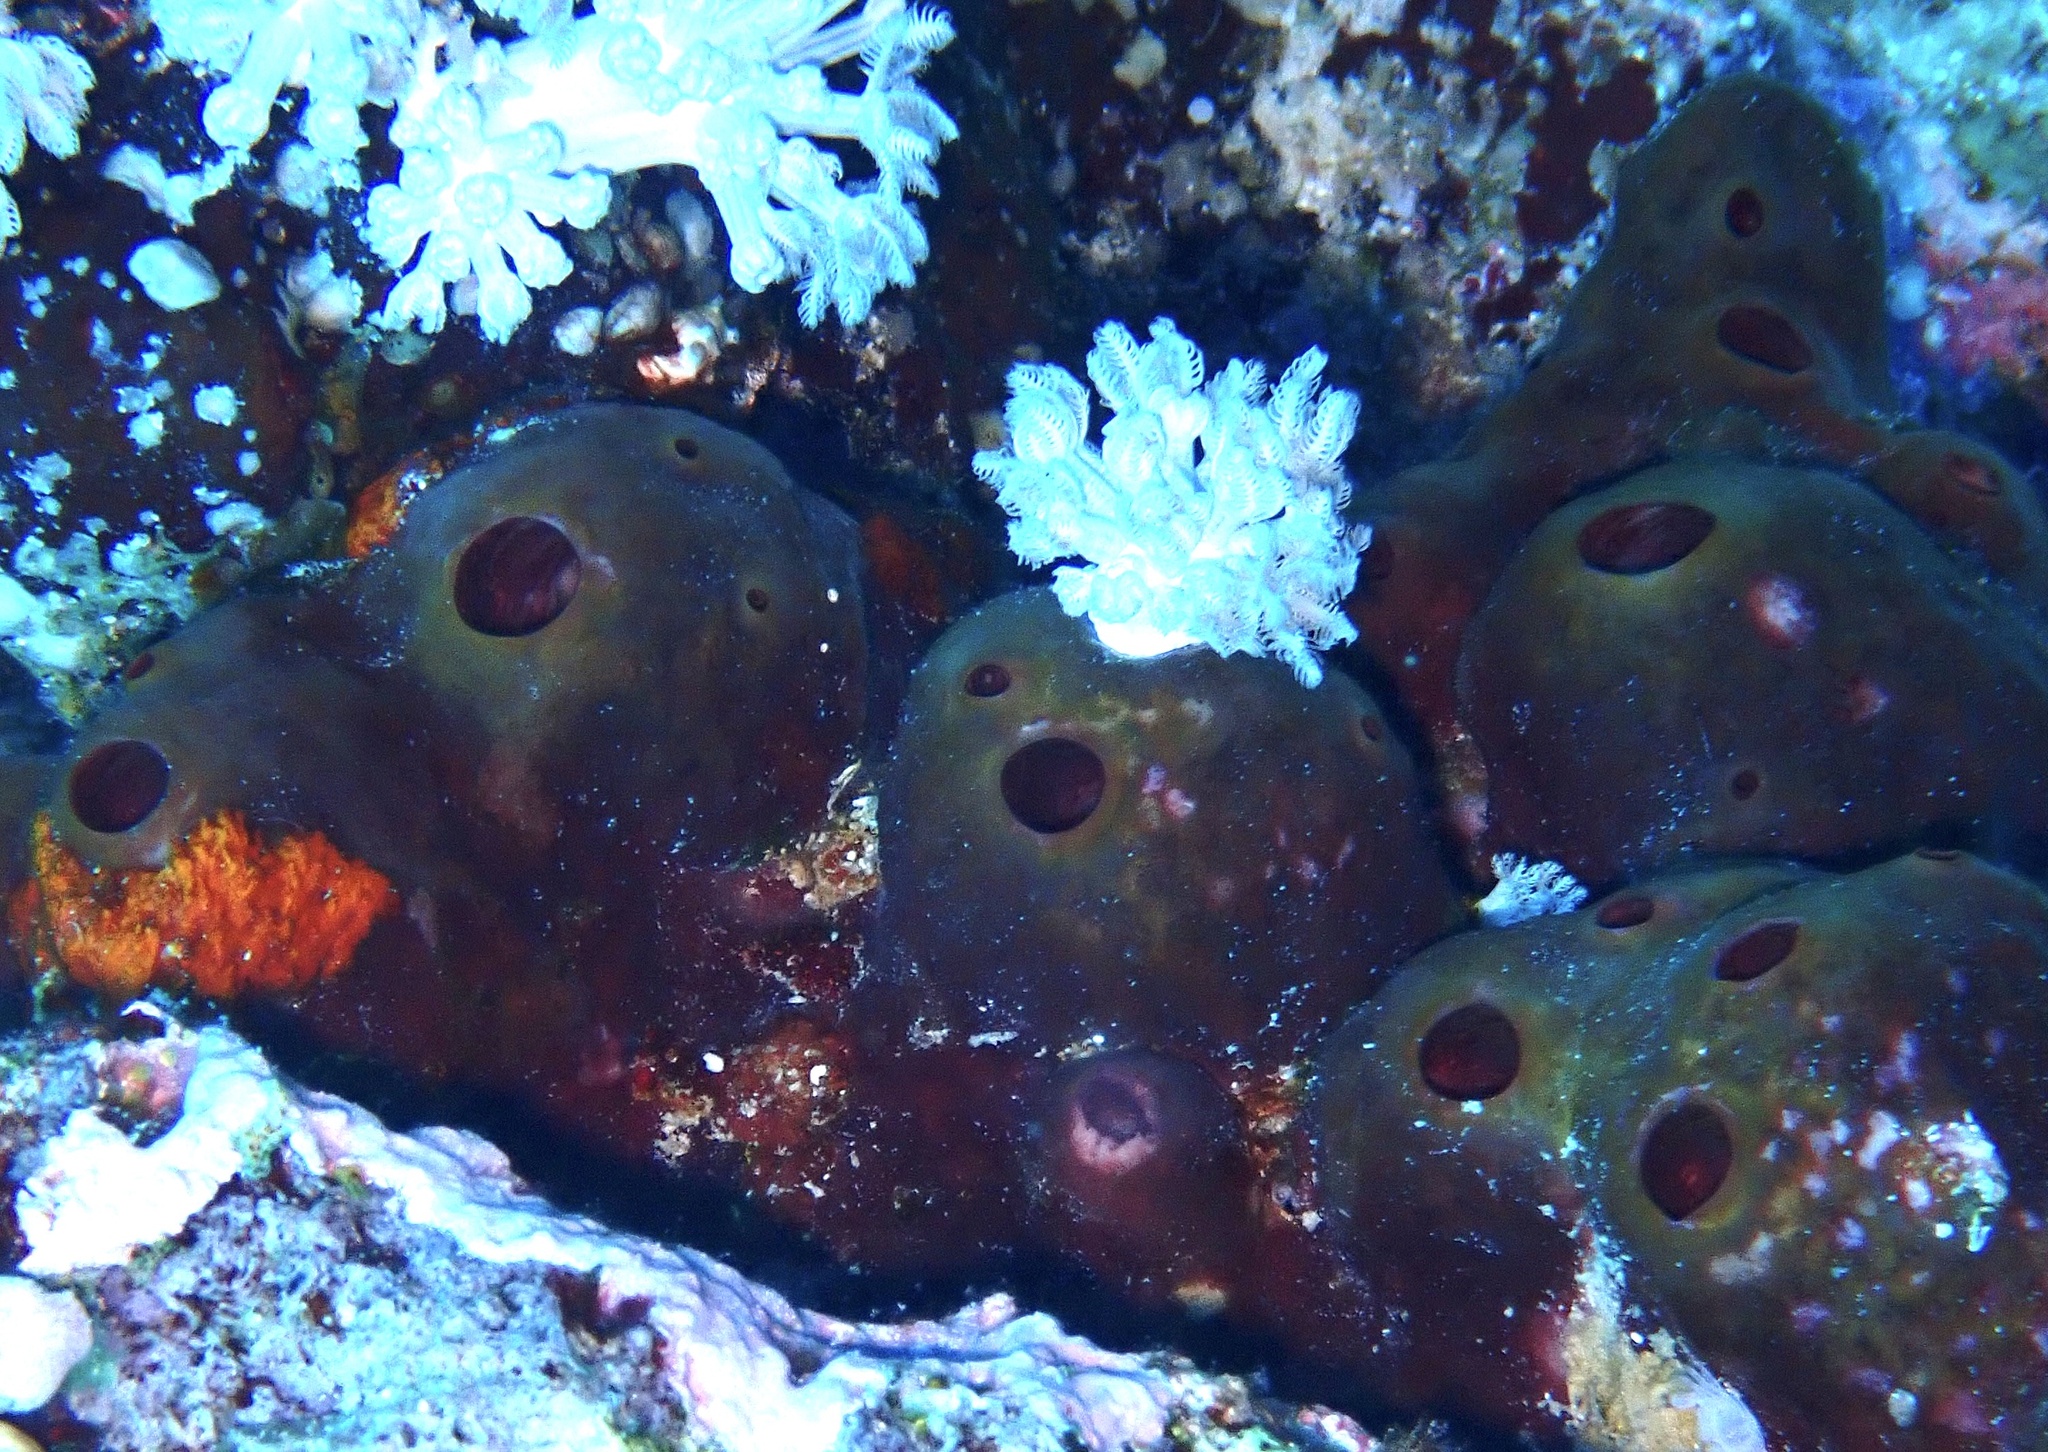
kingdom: Animalia
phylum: Porifera
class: Demospongiae
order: Tetractinellida
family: Theonellidae
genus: Theonella
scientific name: Theonella swinhoei
